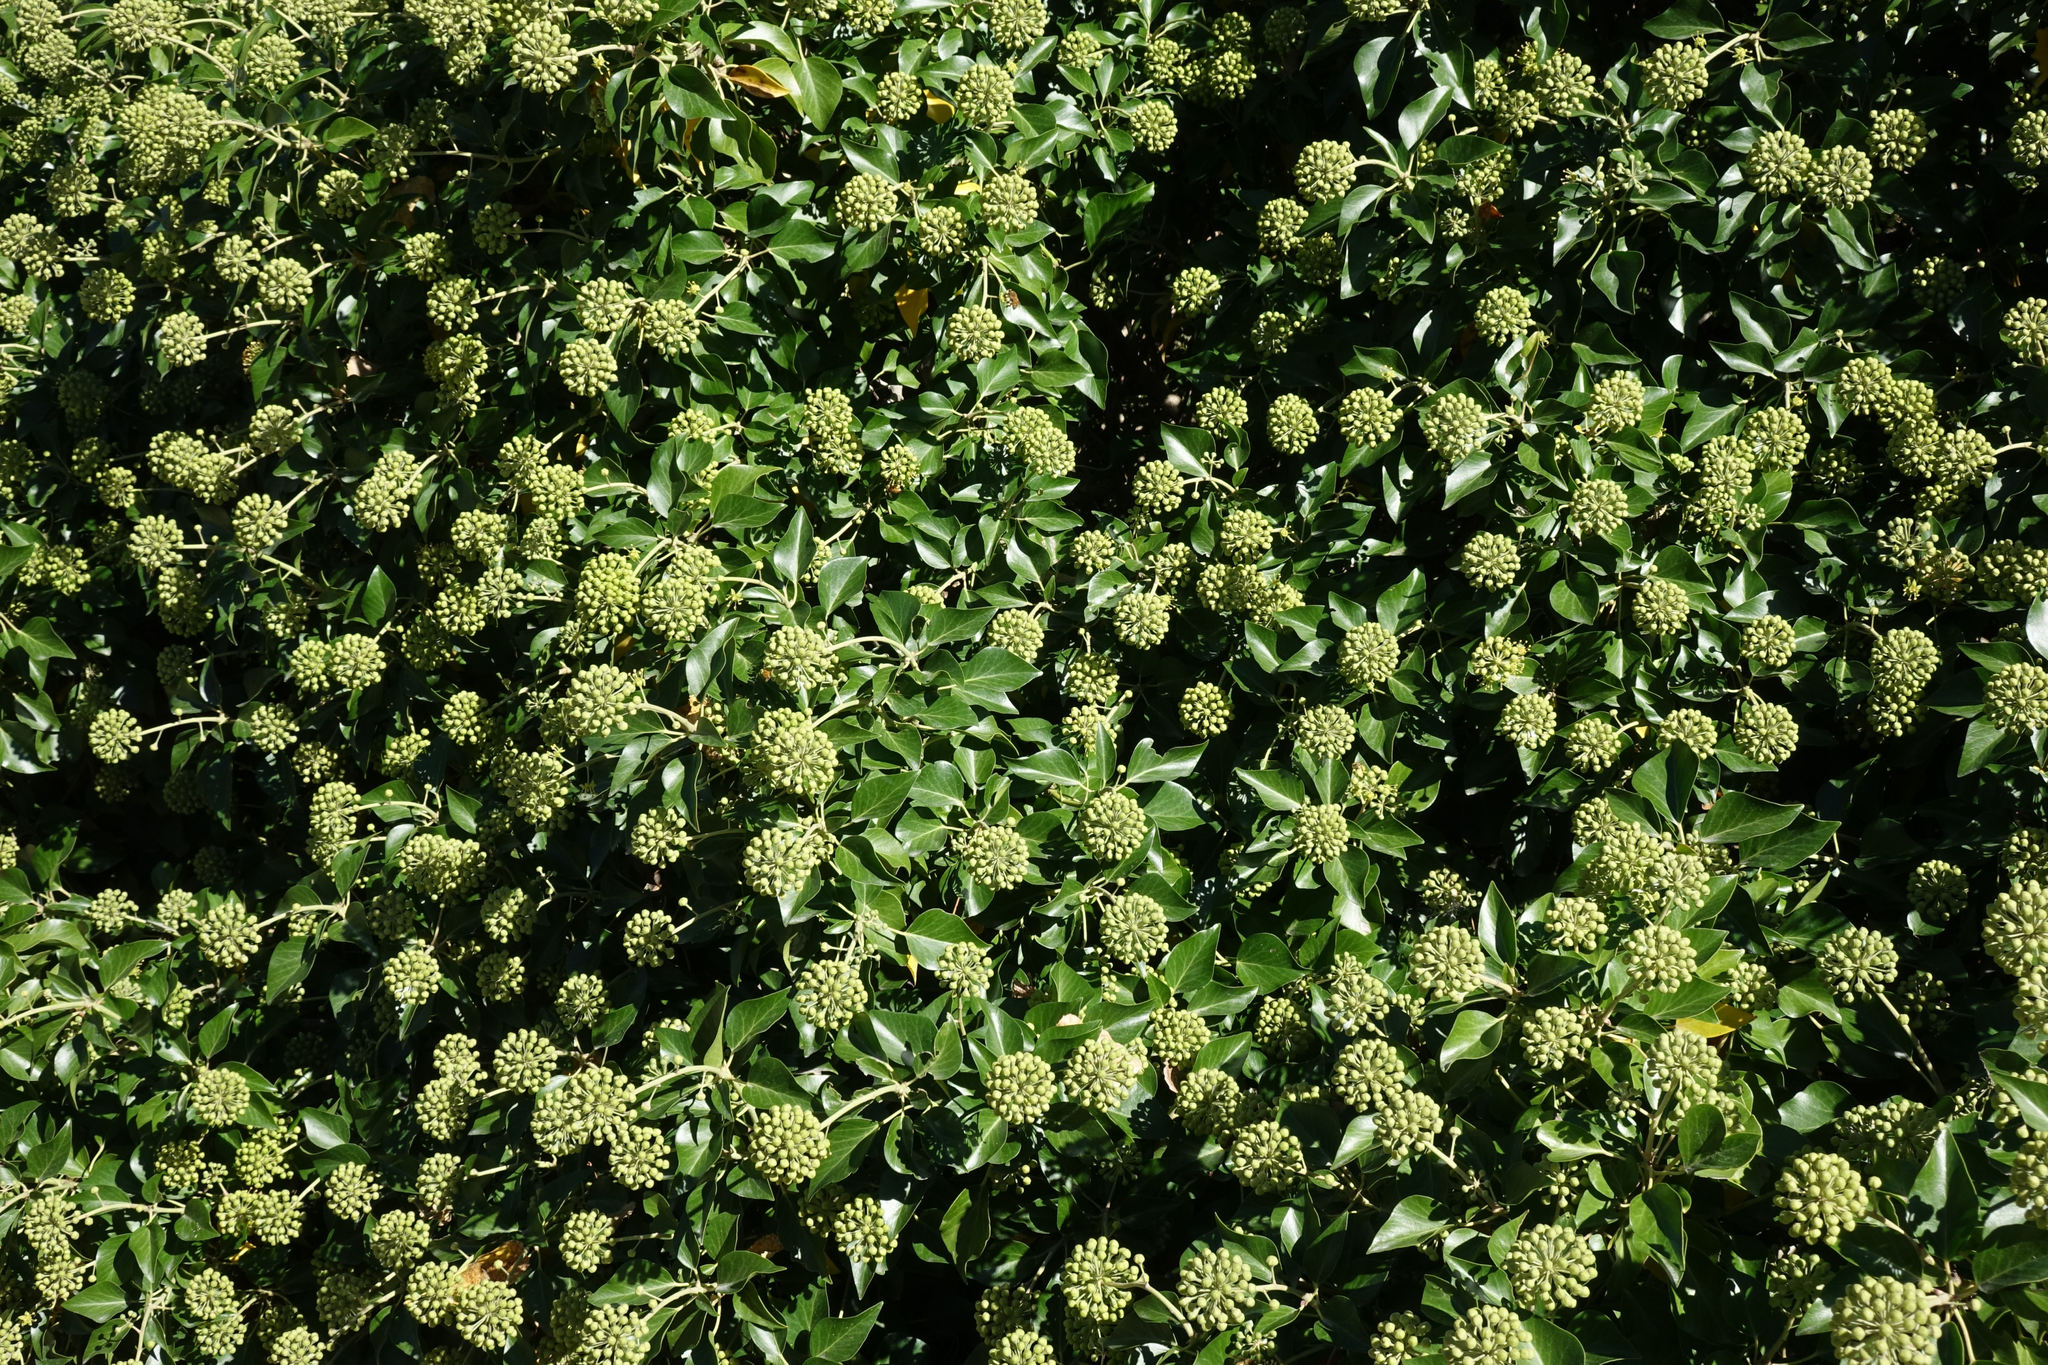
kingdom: Plantae
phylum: Tracheophyta
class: Magnoliopsida
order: Apiales
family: Araliaceae
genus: Hedera
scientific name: Hedera helix
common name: Ivy
